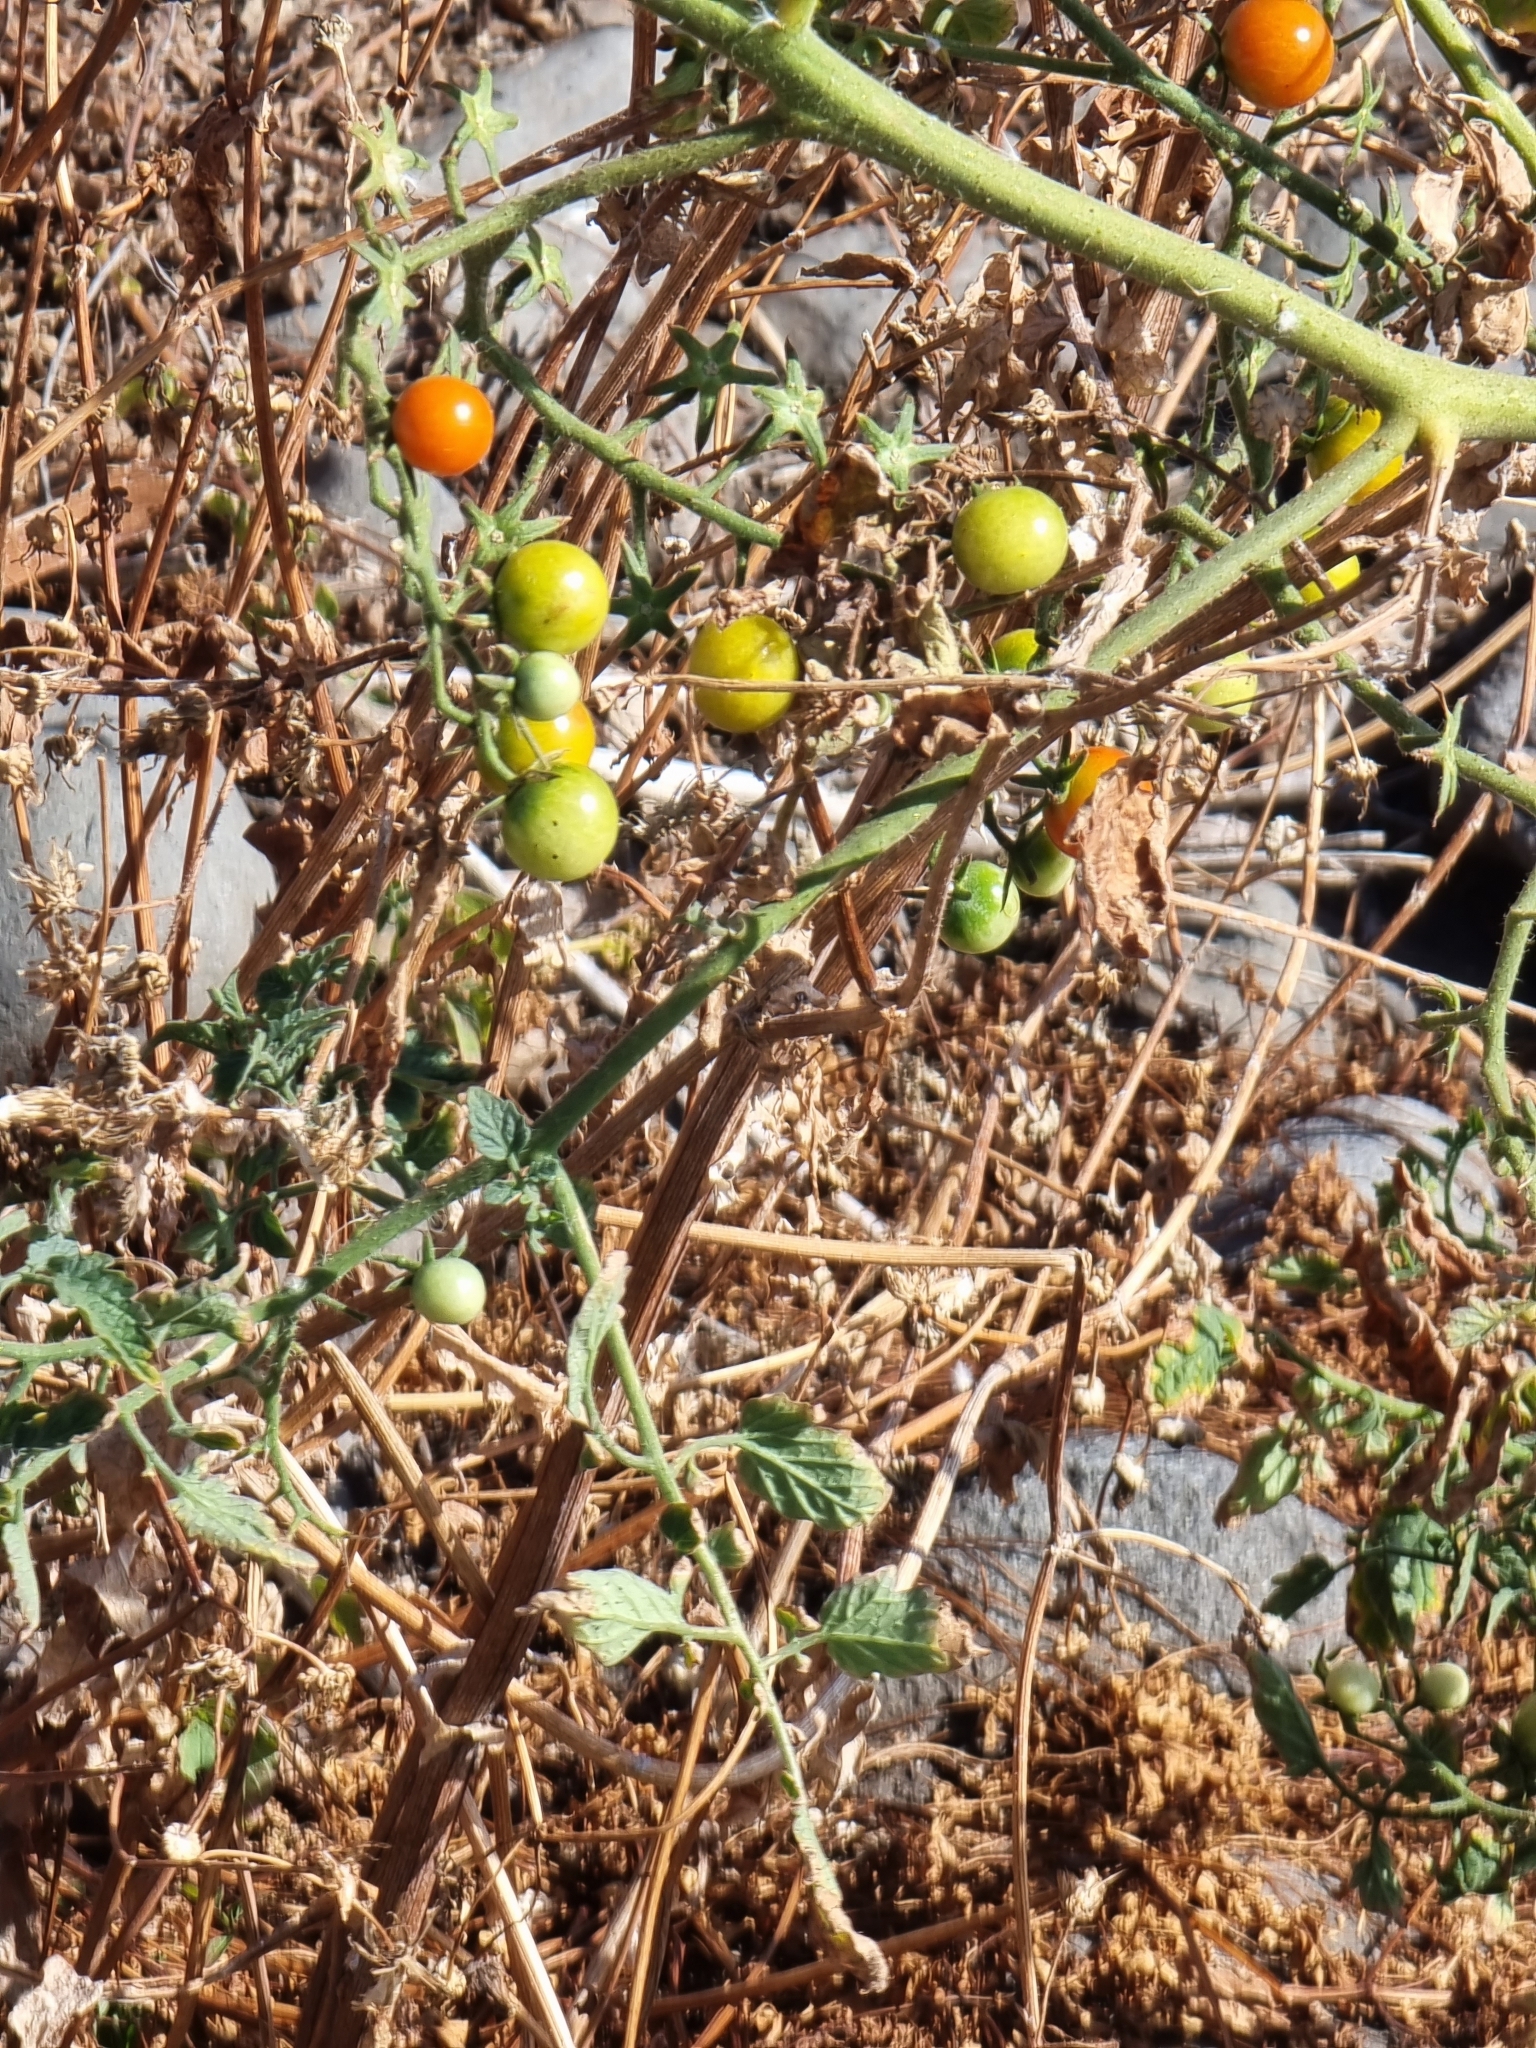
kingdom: Plantae
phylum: Tracheophyta
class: Magnoliopsida
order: Solanales
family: Solanaceae
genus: Solanum
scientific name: Solanum lycopersicum
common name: Garden tomato
